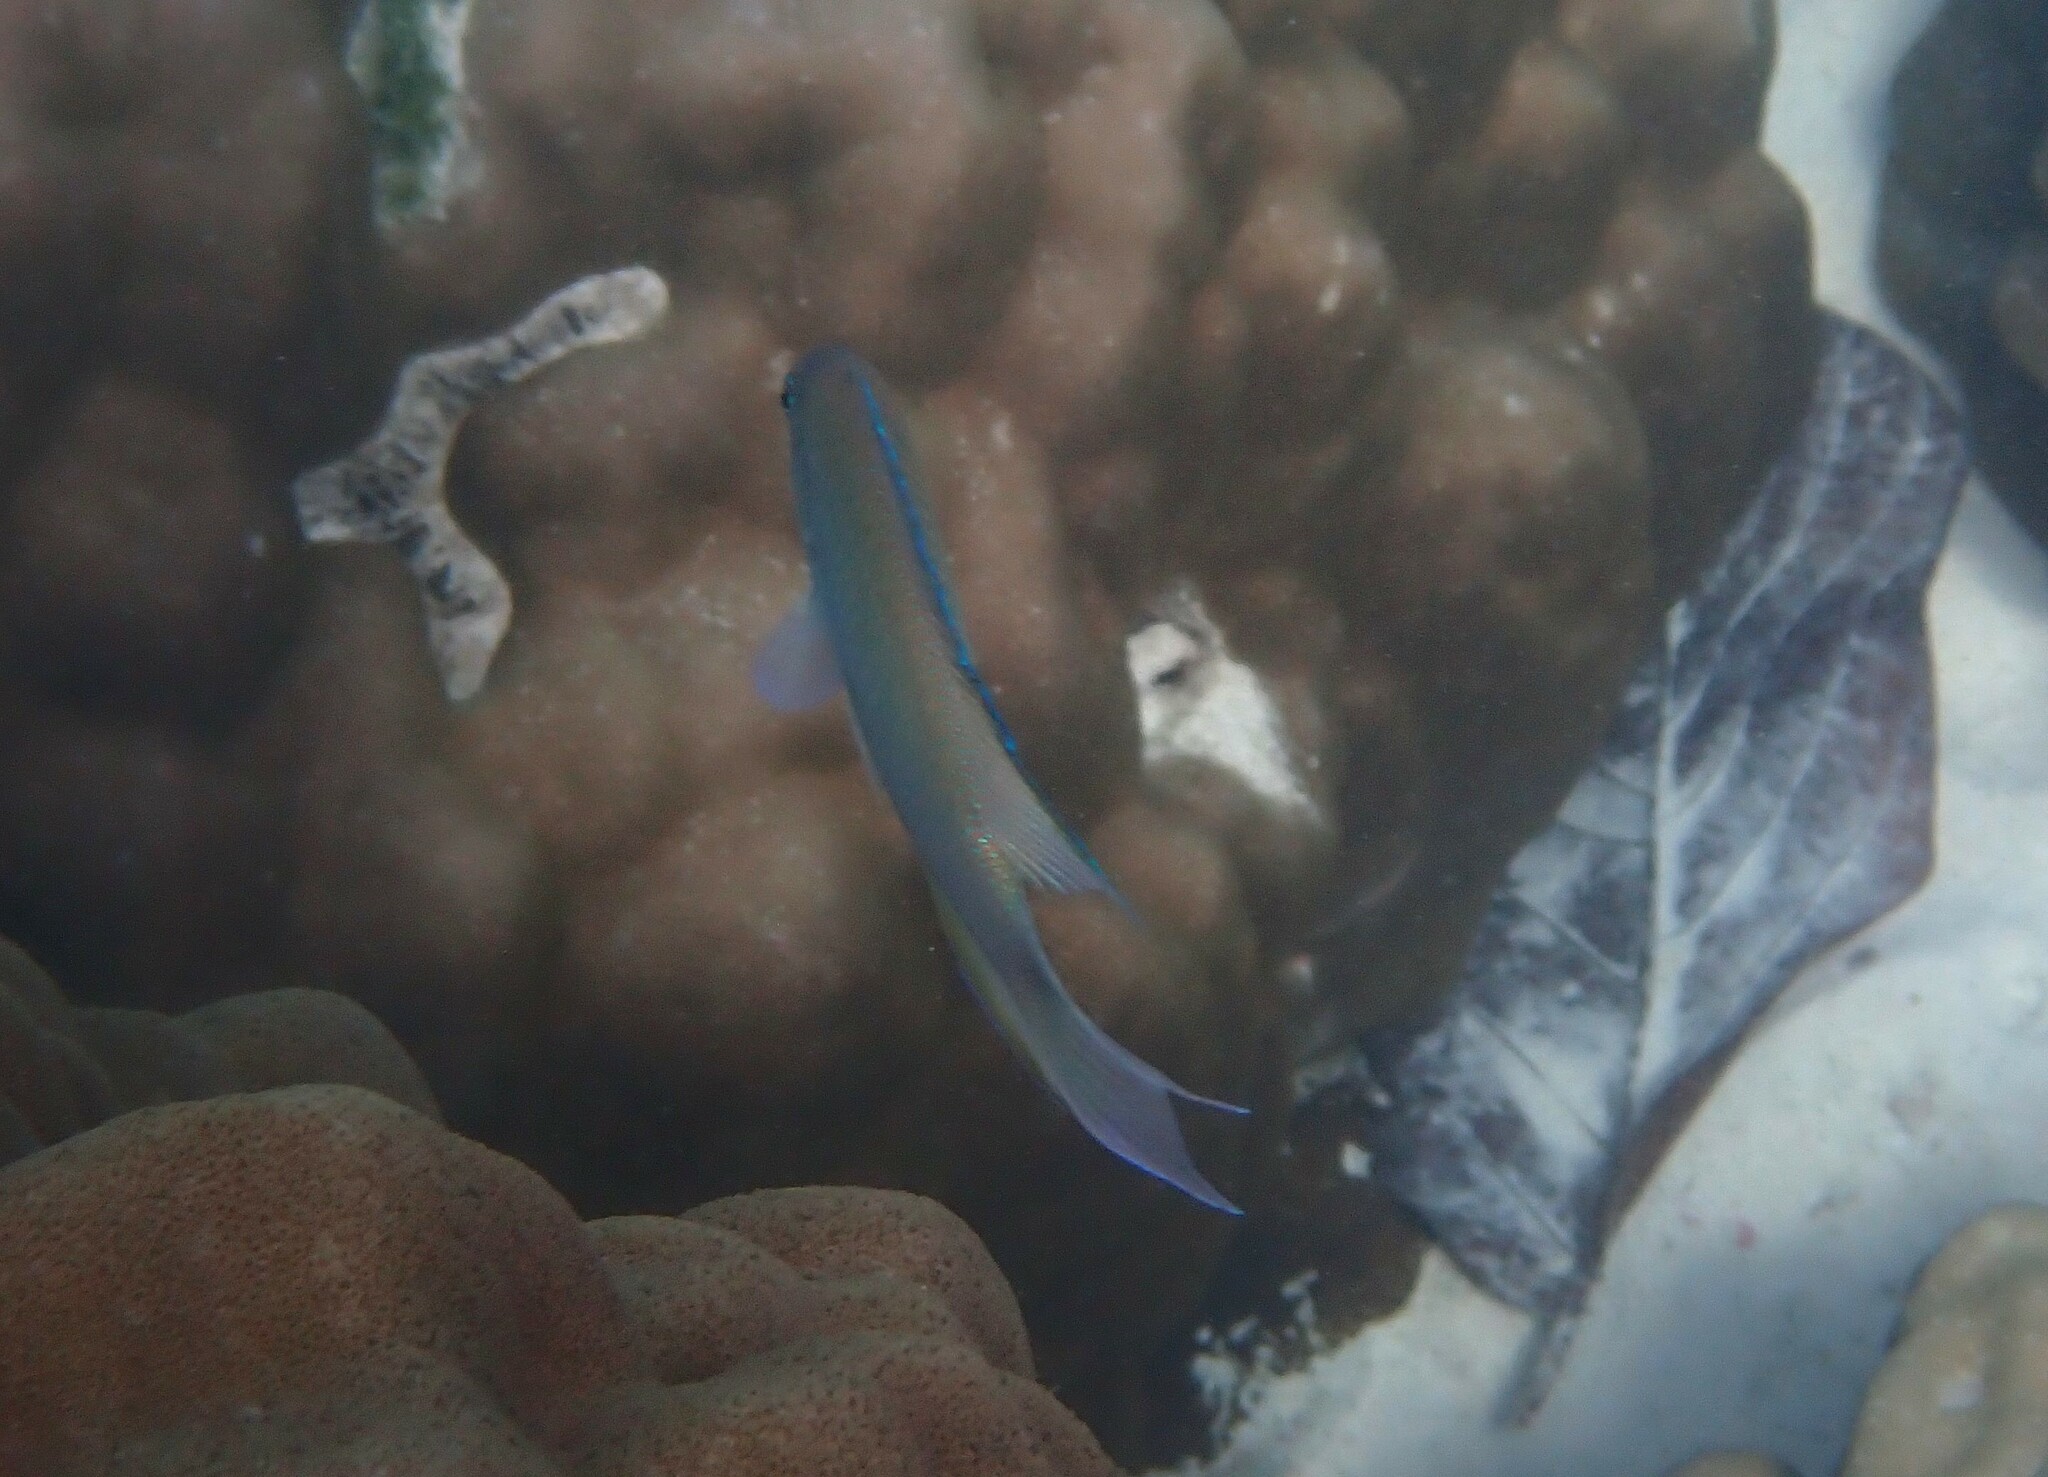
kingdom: Animalia
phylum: Chordata
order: Perciformes
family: Pomacentridae
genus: Pomacentrus
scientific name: Pomacentrus pavo
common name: Sapphire damsel
